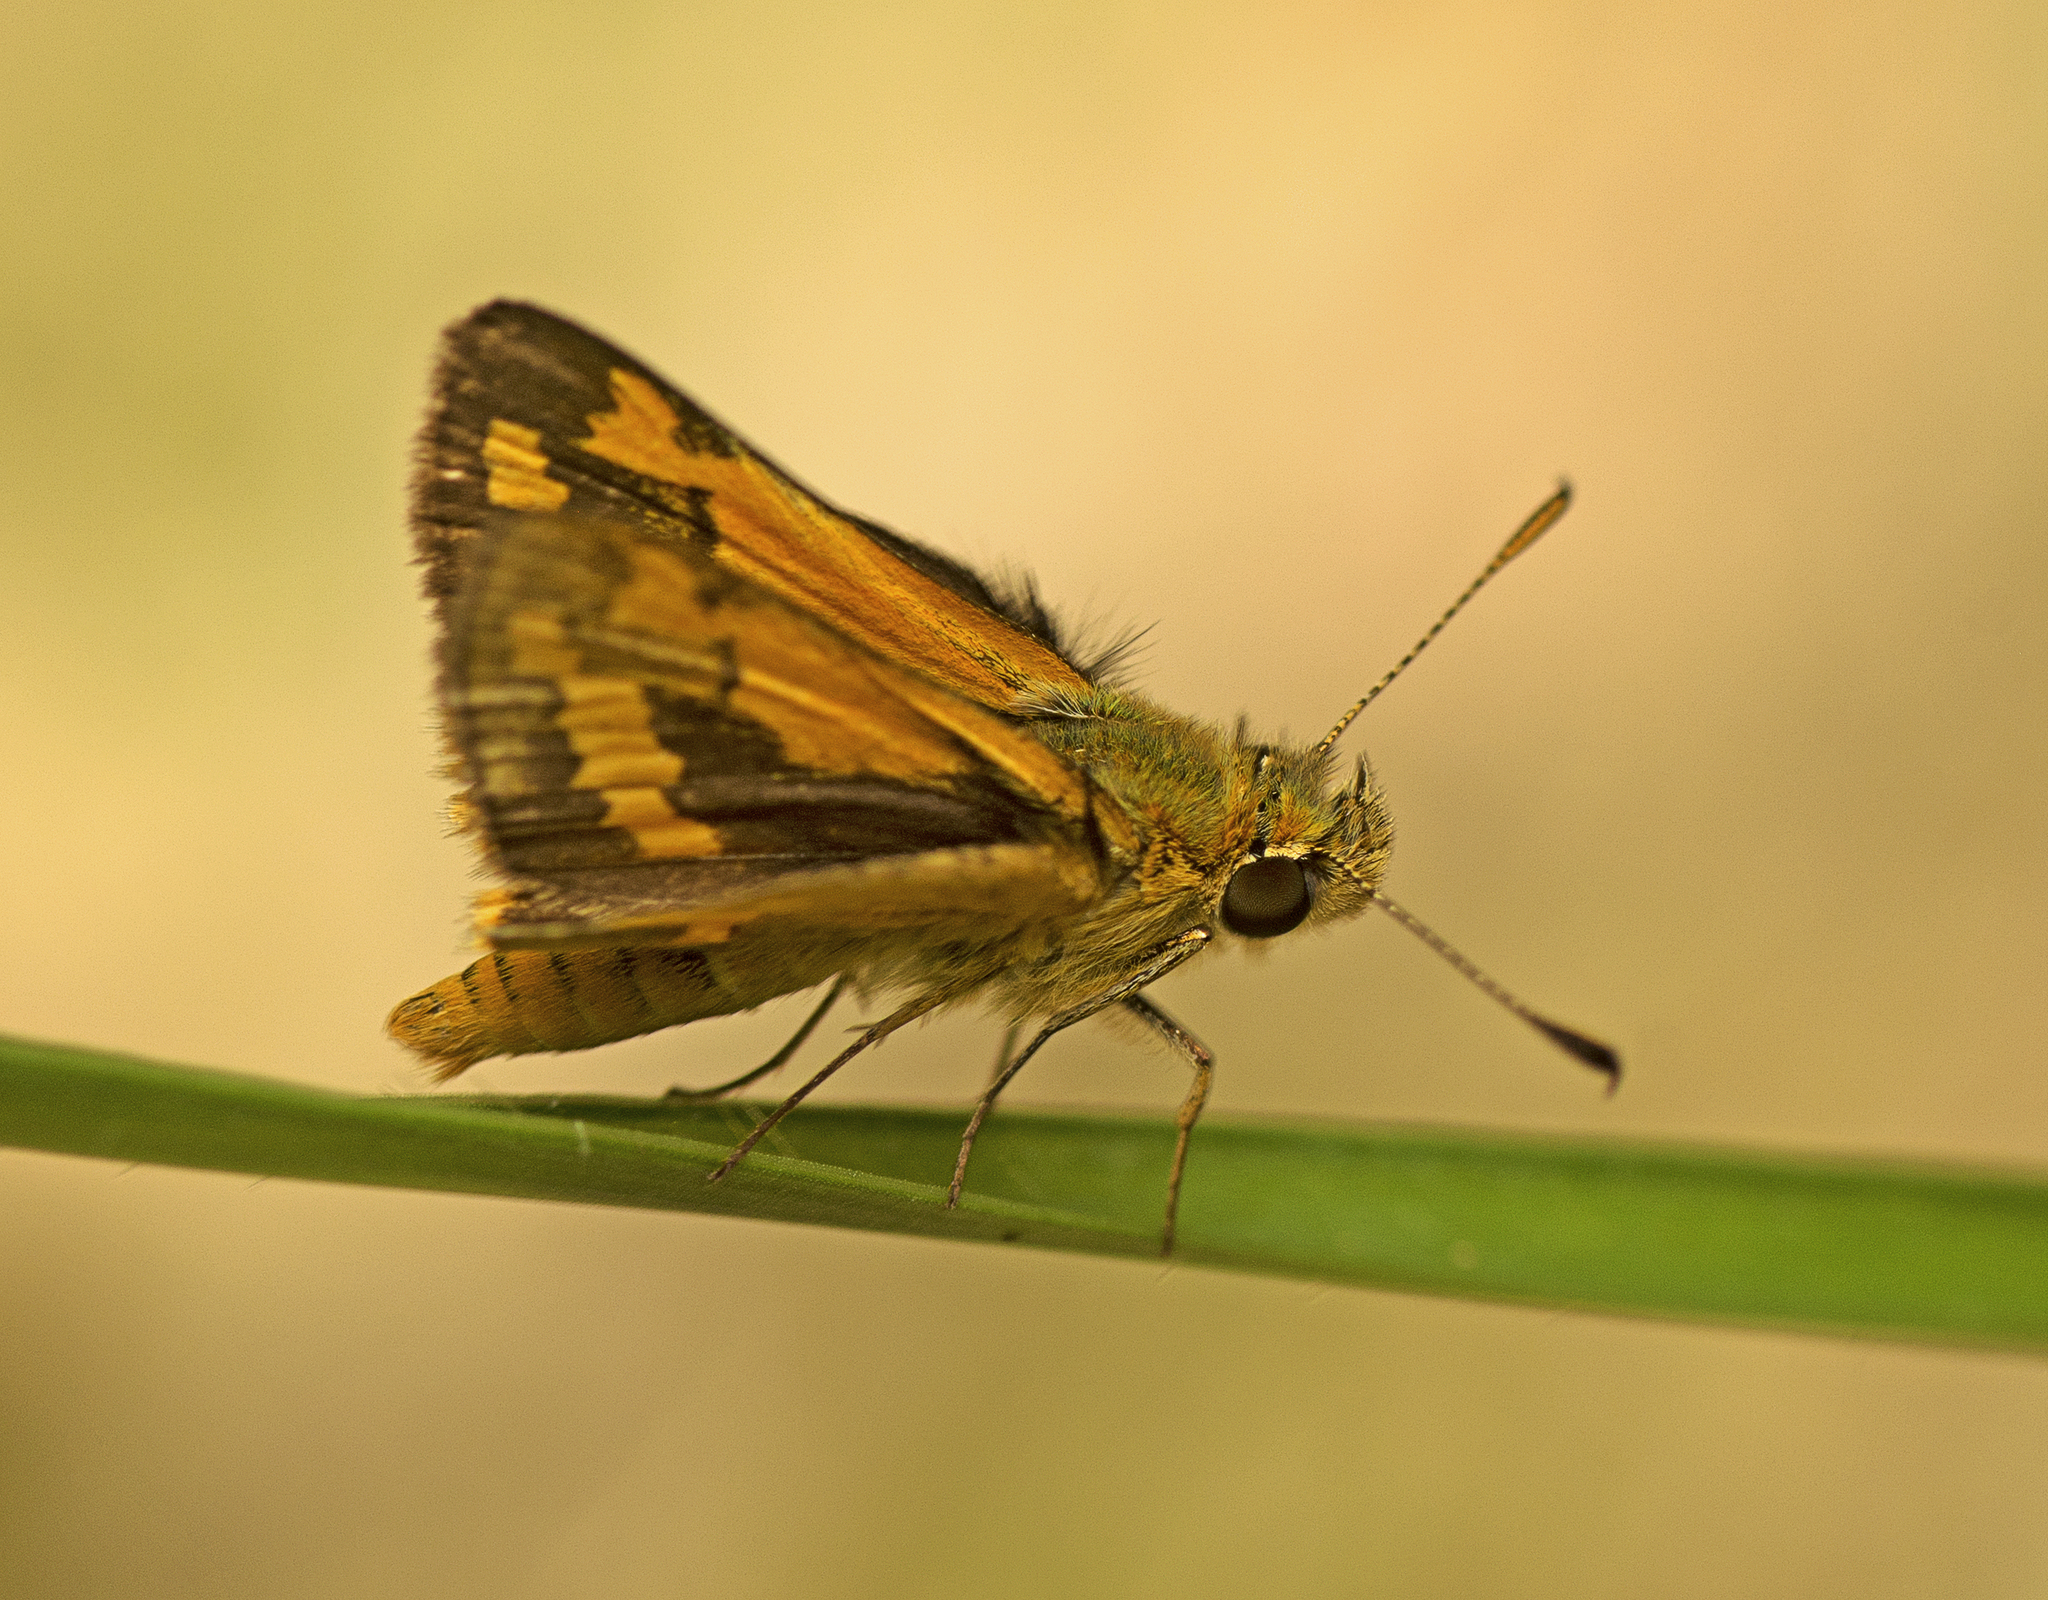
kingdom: Animalia
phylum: Arthropoda
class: Insecta
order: Lepidoptera
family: Hesperiidae
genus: Ocybadistes
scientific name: Ocybadistes walkeri
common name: Yellow-banded dart
